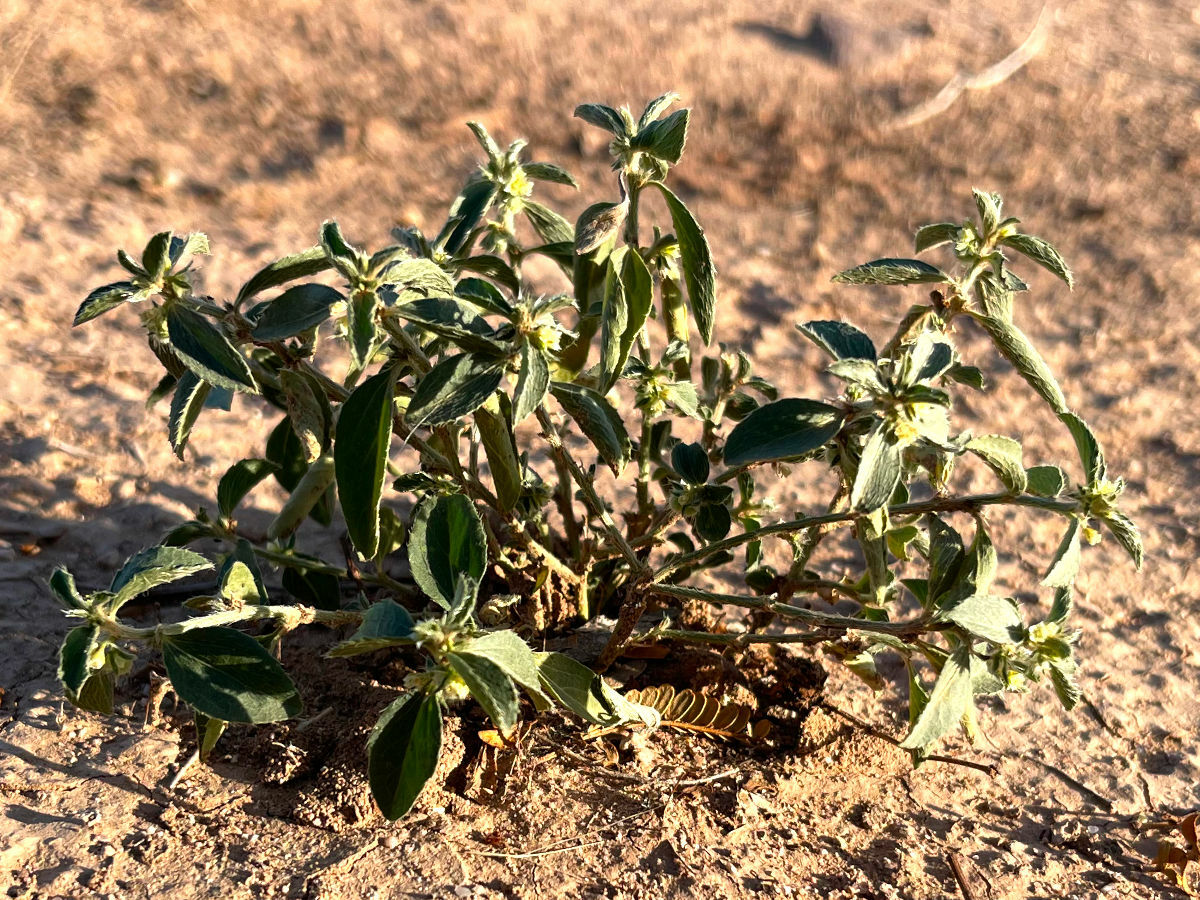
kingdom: Plantae
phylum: Tracheophyta
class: Magnoliopsida
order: Malpighiales
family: Euphorbiaceae
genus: Ditaxis
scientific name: Ditaxis serrata
